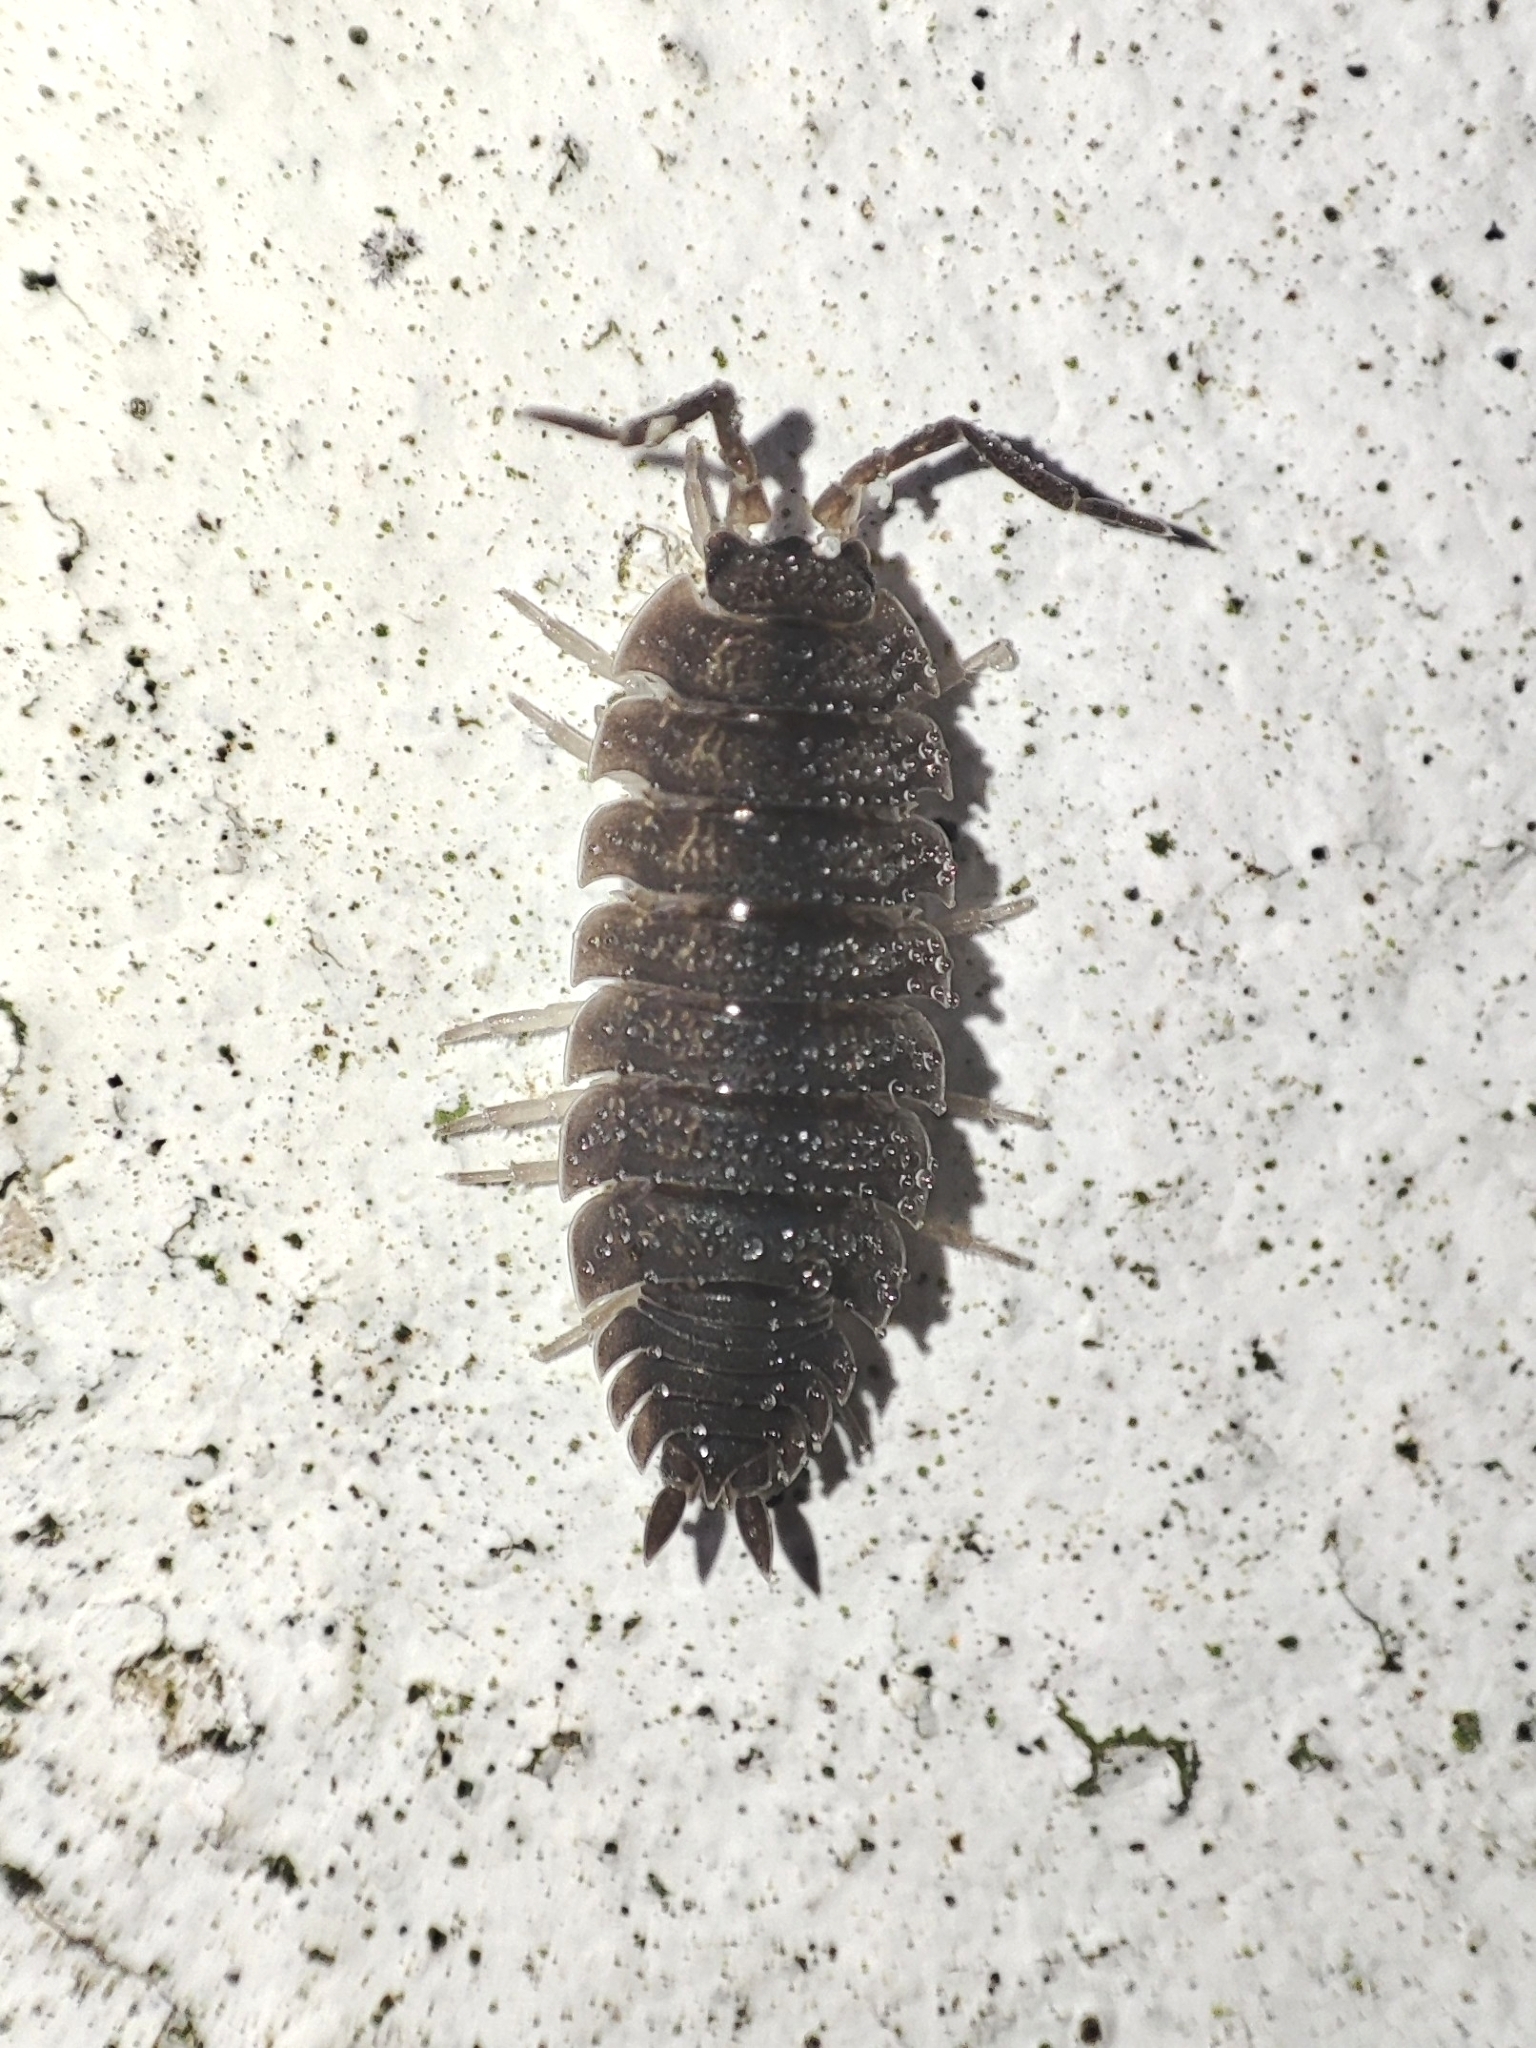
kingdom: Animalia
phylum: Arthropoda
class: Malacostraca
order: Isopoda
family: Porcellionidae
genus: Porcellio
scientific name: Porcellio scaber
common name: Common rough woodlouse
